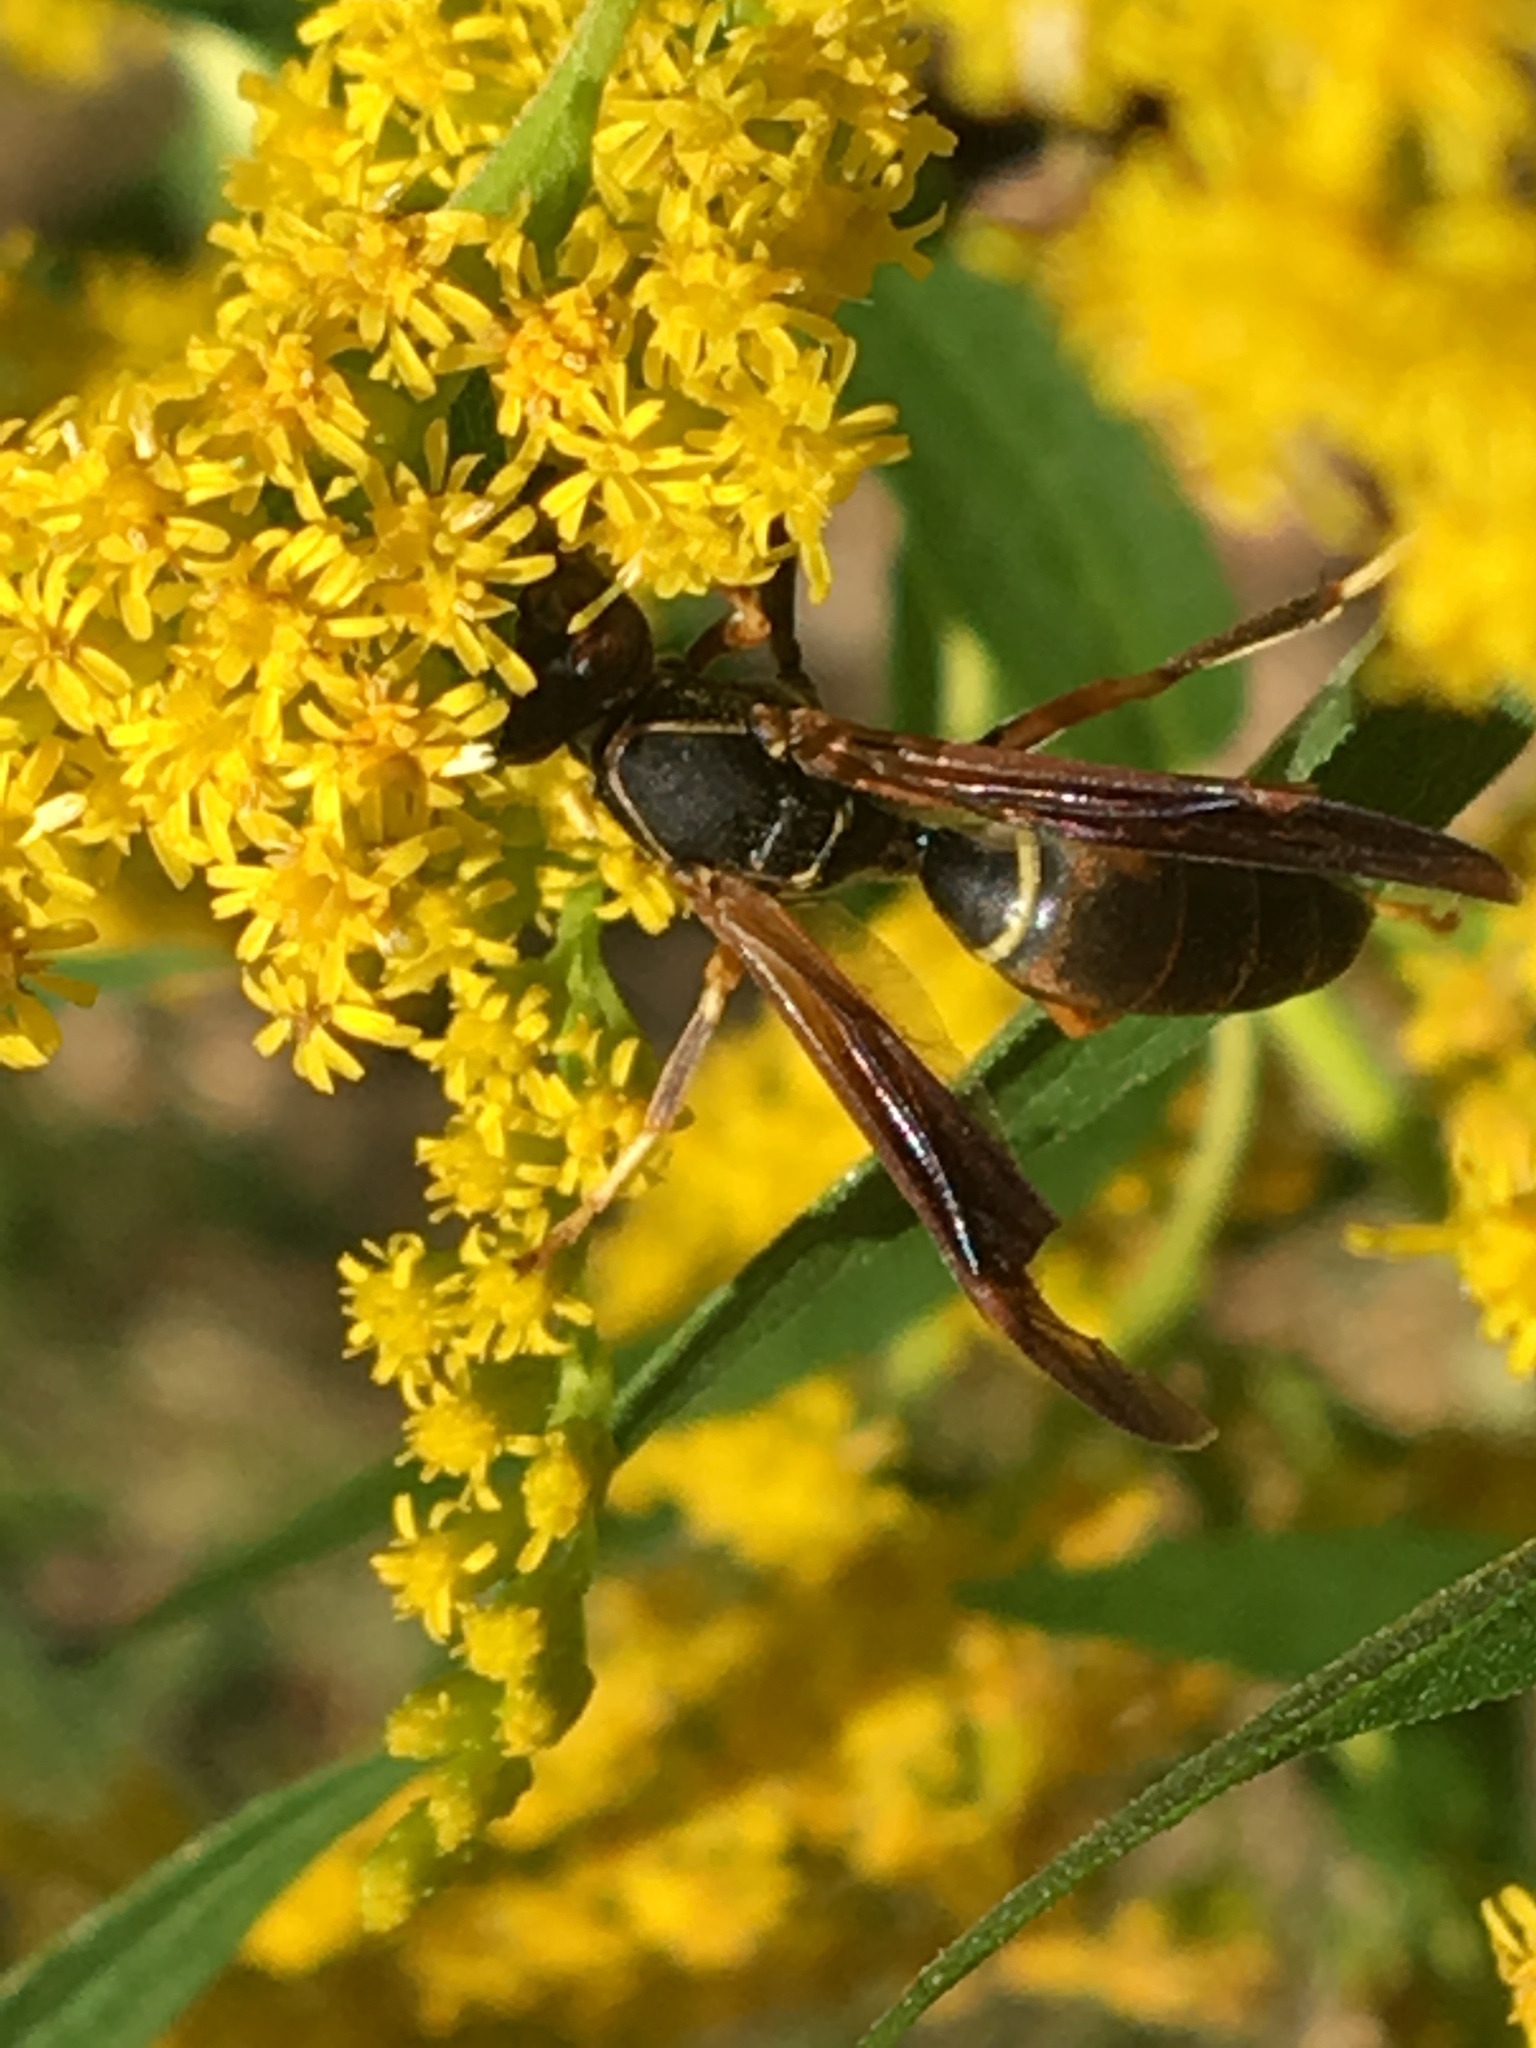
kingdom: Animalia
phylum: Arthropoda
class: Insecta
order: Hymenoptera
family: Eumenidae
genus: Polistes
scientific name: Polistes fuscatus
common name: Dark paper wasp
